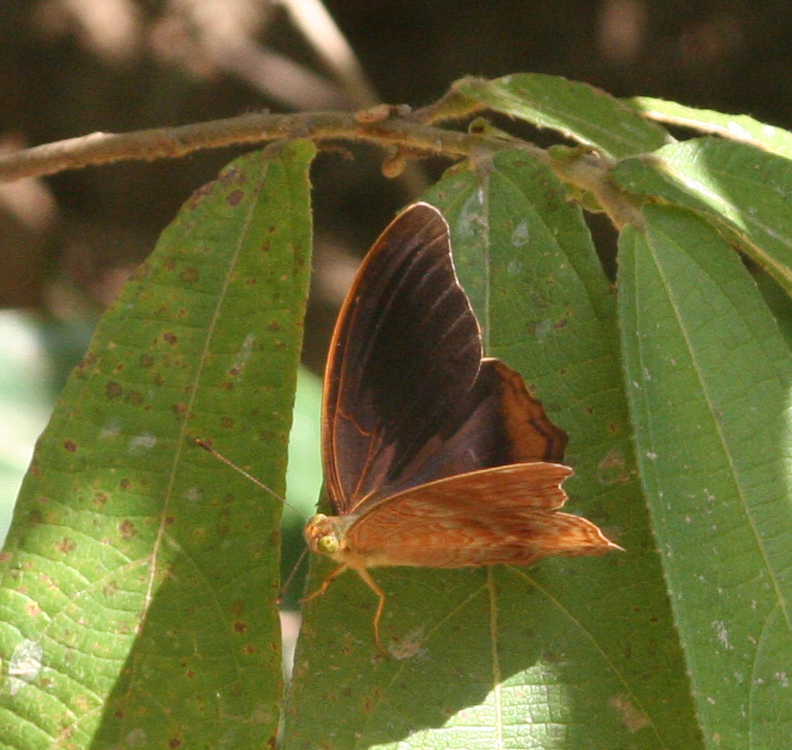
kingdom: Animalia
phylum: Arthropoda
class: Insecta
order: Lepidoptera
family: Nymphalidae
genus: Terinos
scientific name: Terinos terpander
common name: Royal assyrian
